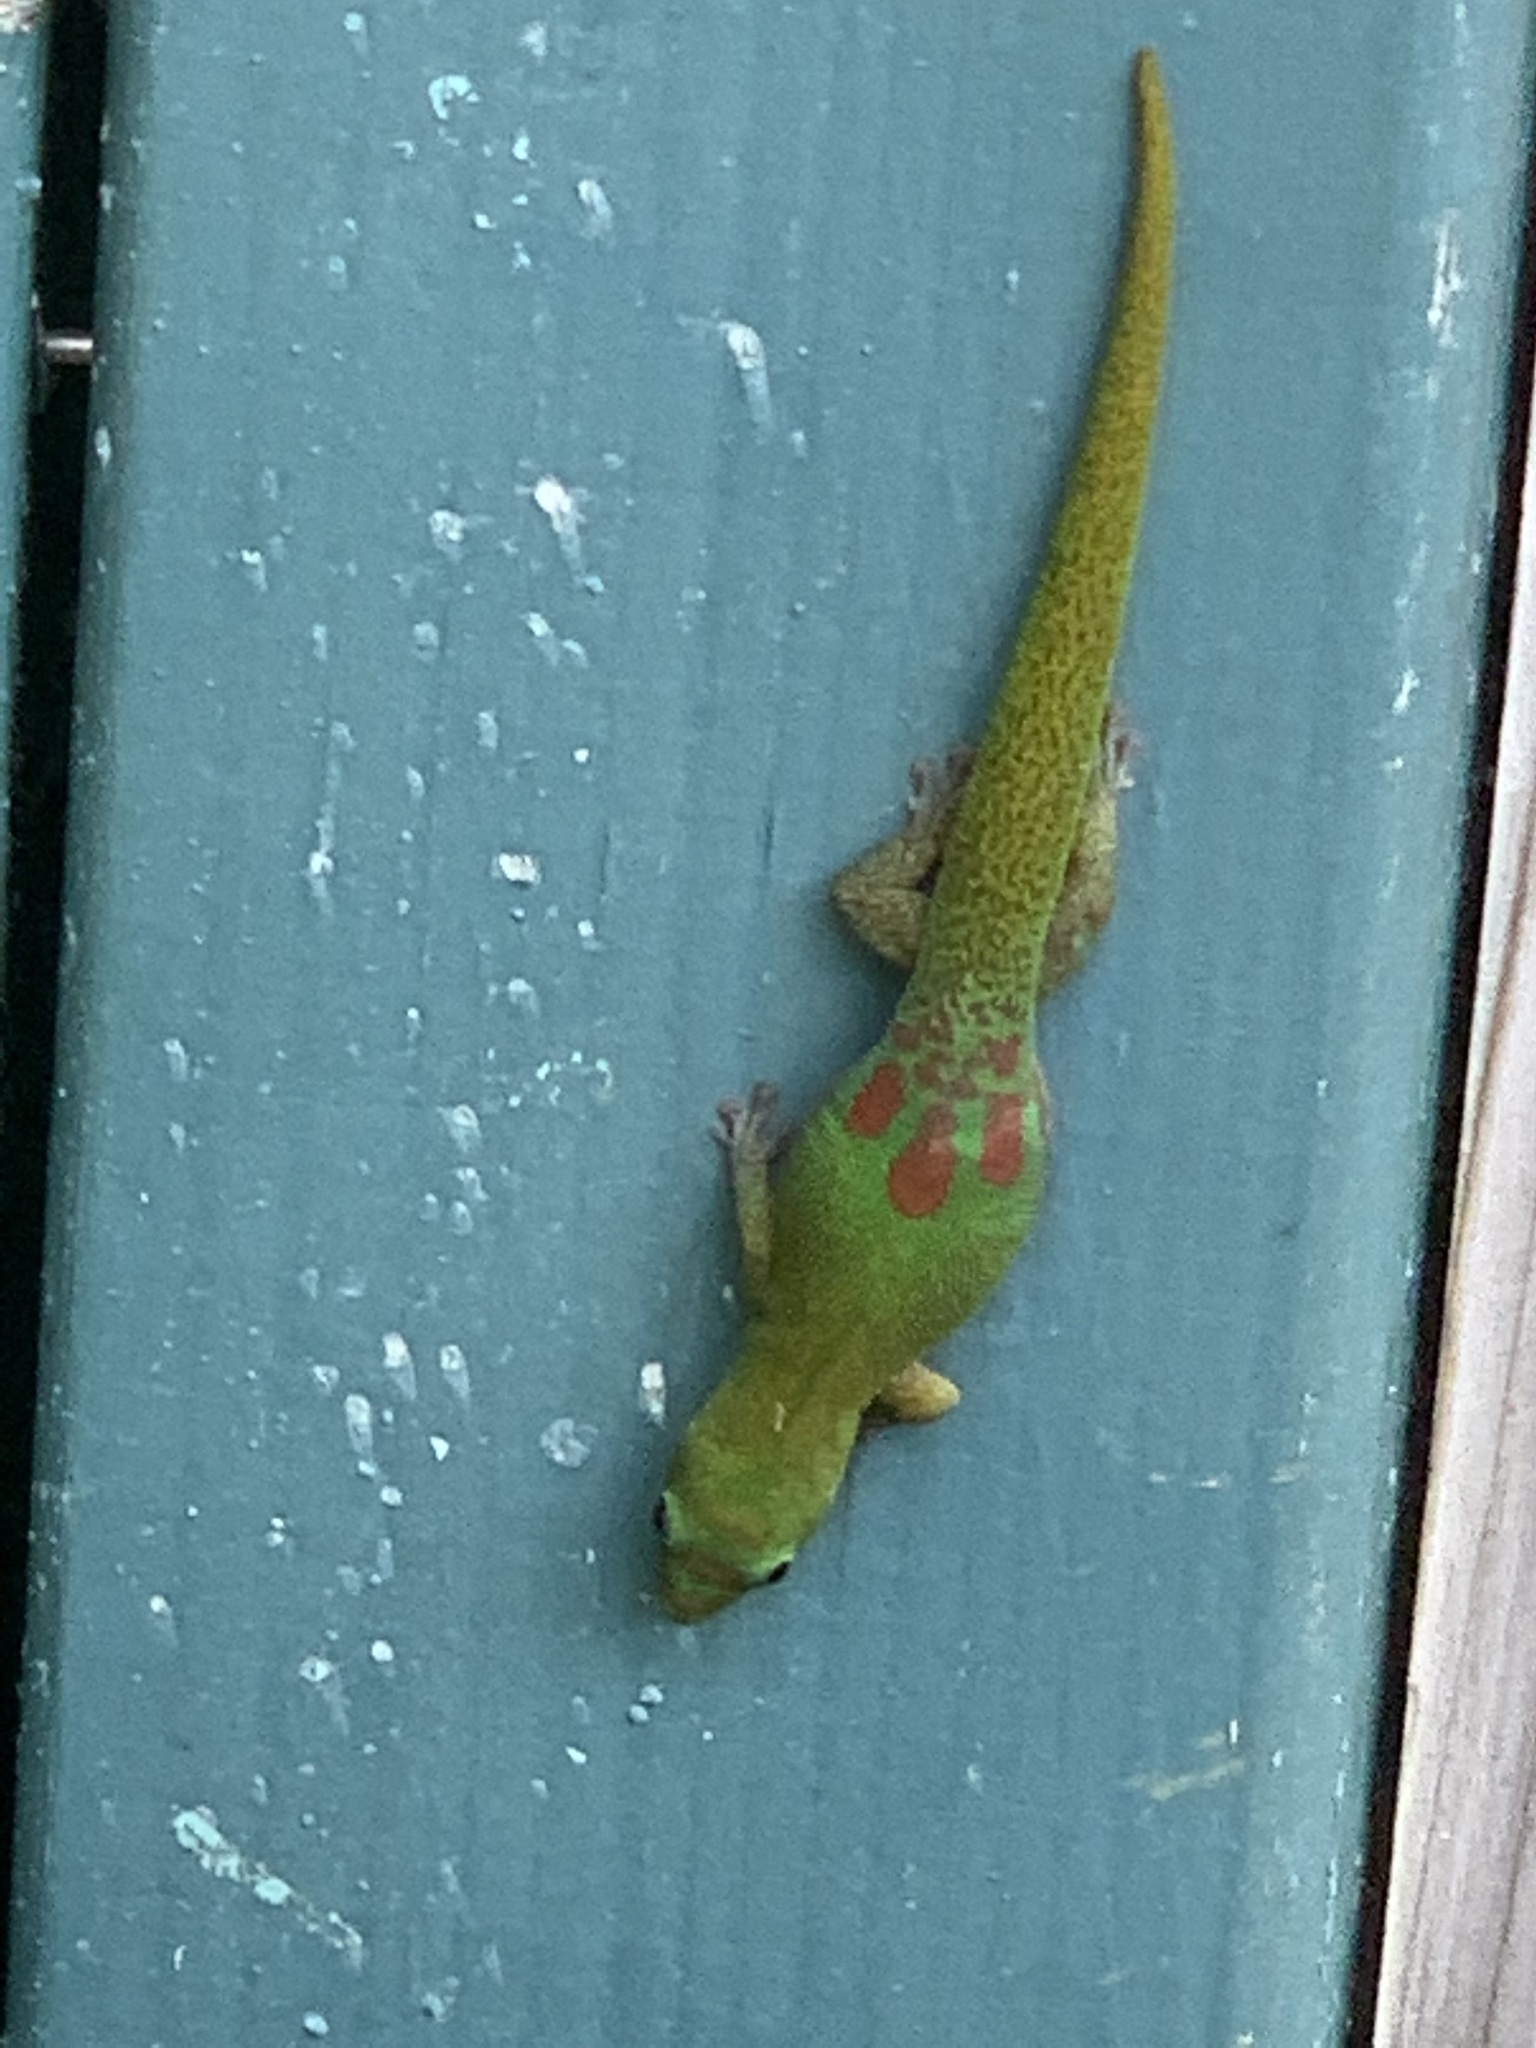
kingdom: Animalia
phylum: Chordata
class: Squamata
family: Gekkonidae
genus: Phelsuma
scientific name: Phelsuma laticauda
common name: Gold dust day gecko
